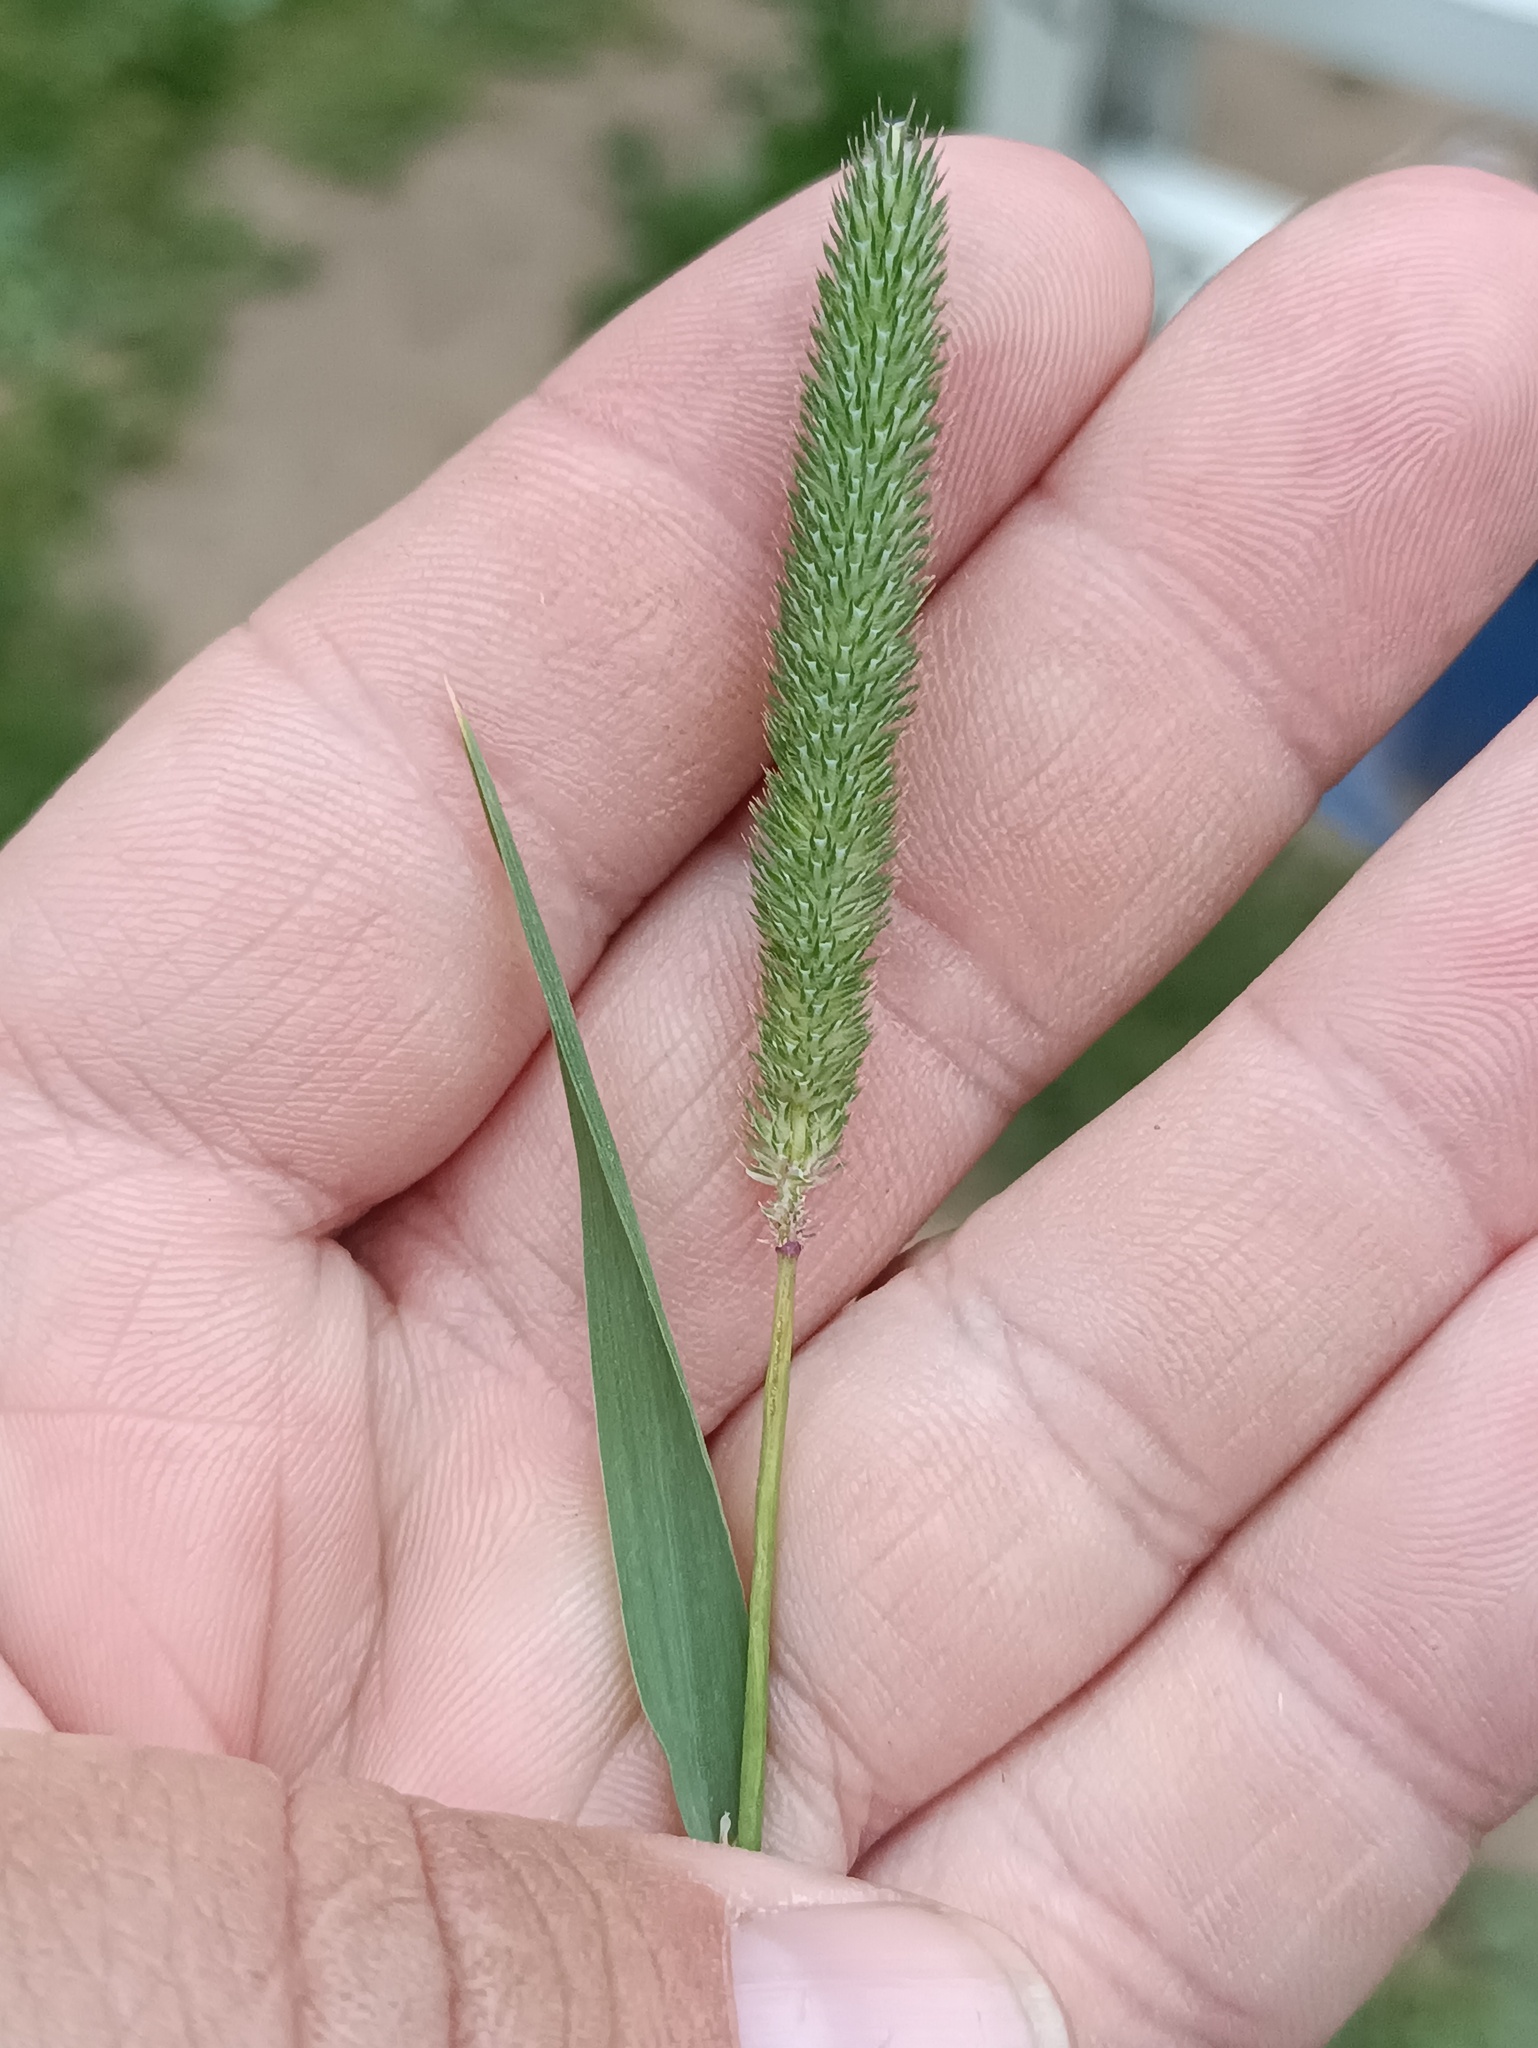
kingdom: Plantae
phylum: Tracheophyta
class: Liliopsida
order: Poales
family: Poaceae
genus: Phleum
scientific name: Phleum pratense
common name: Timothy grass
